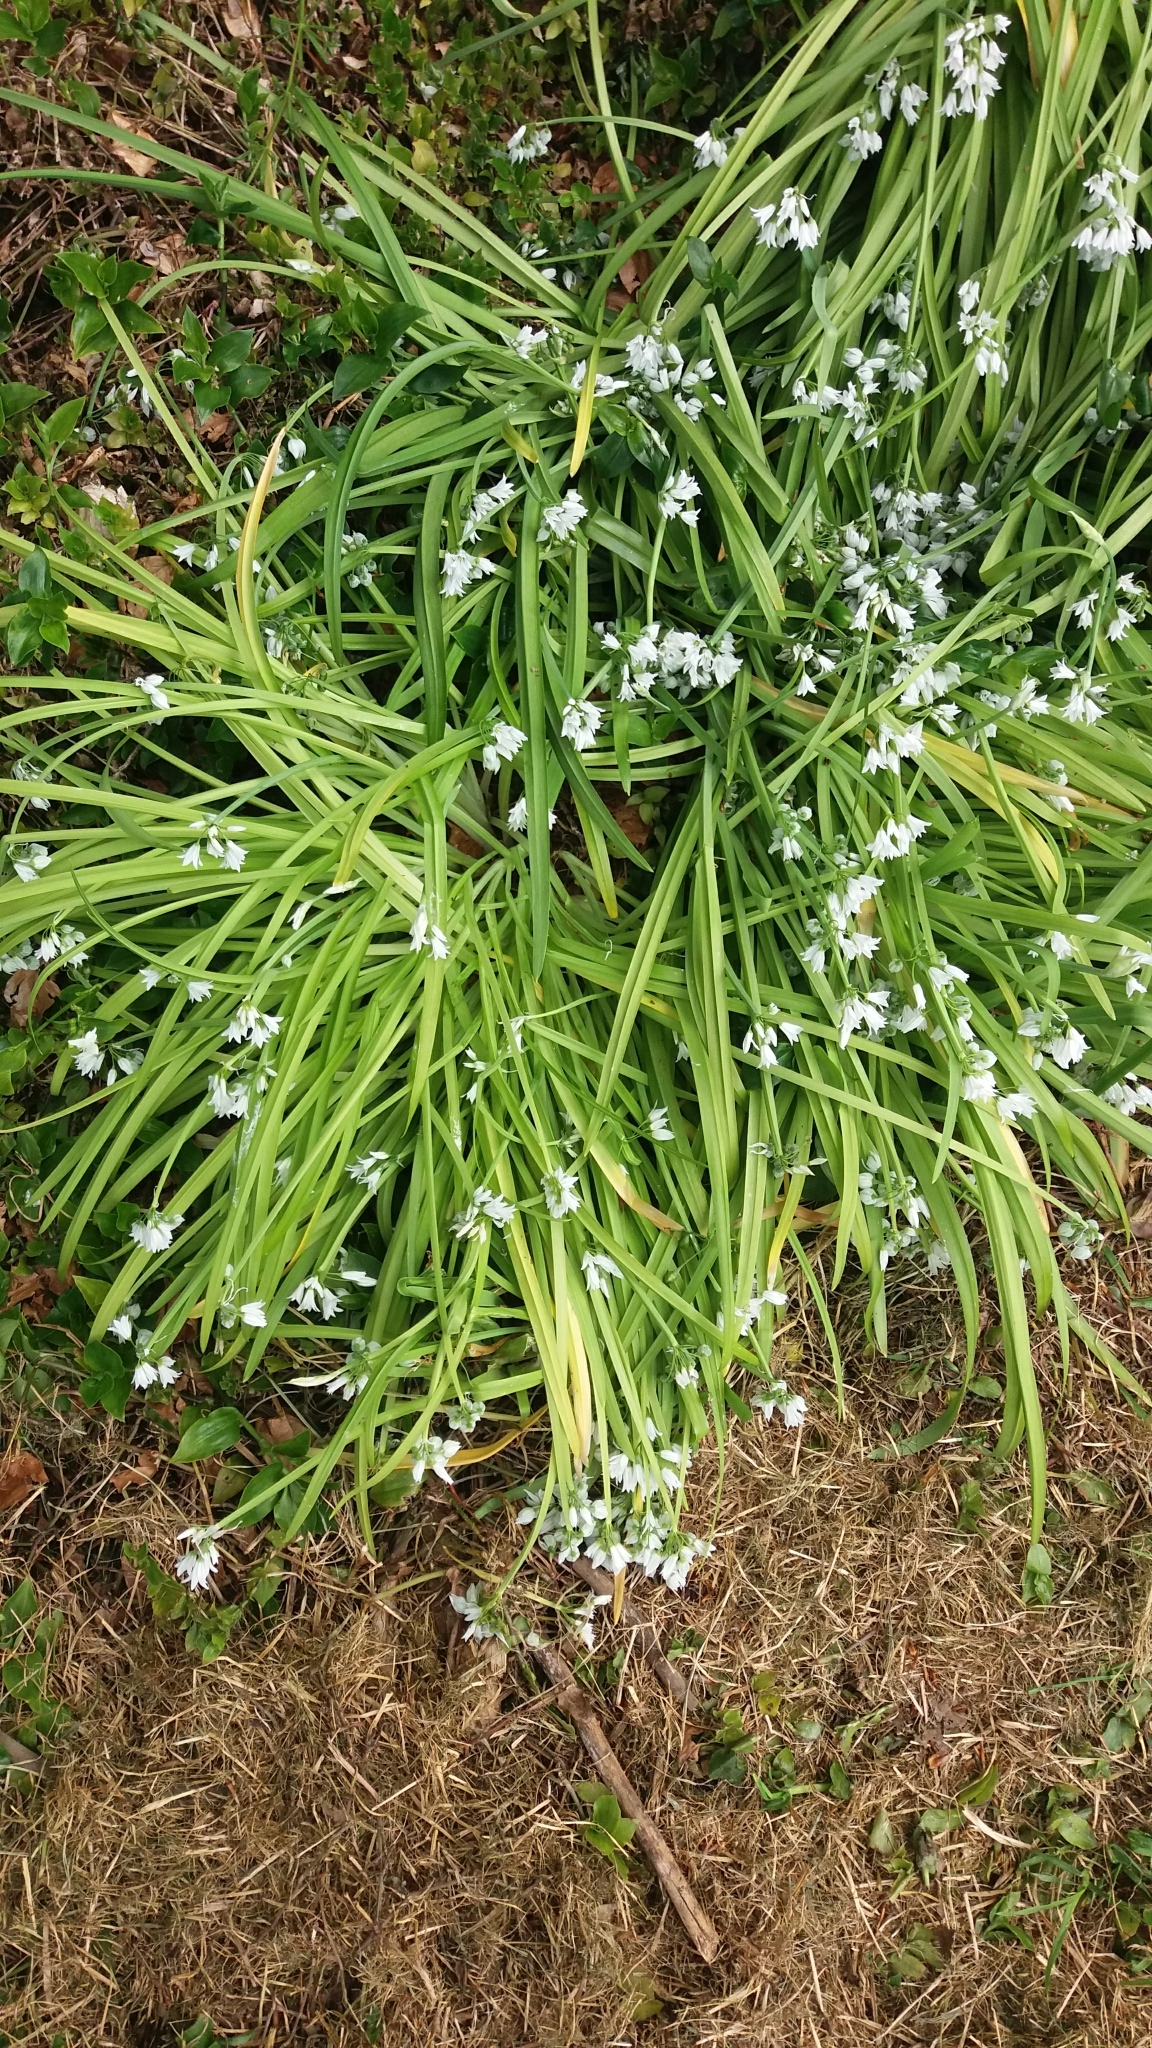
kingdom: Plantae
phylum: Tracheophyta
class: Liliopsida
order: Asparagales
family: Amaryllidaceae
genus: Allium
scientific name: Allium triquetrum
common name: Three-cornered garlic
